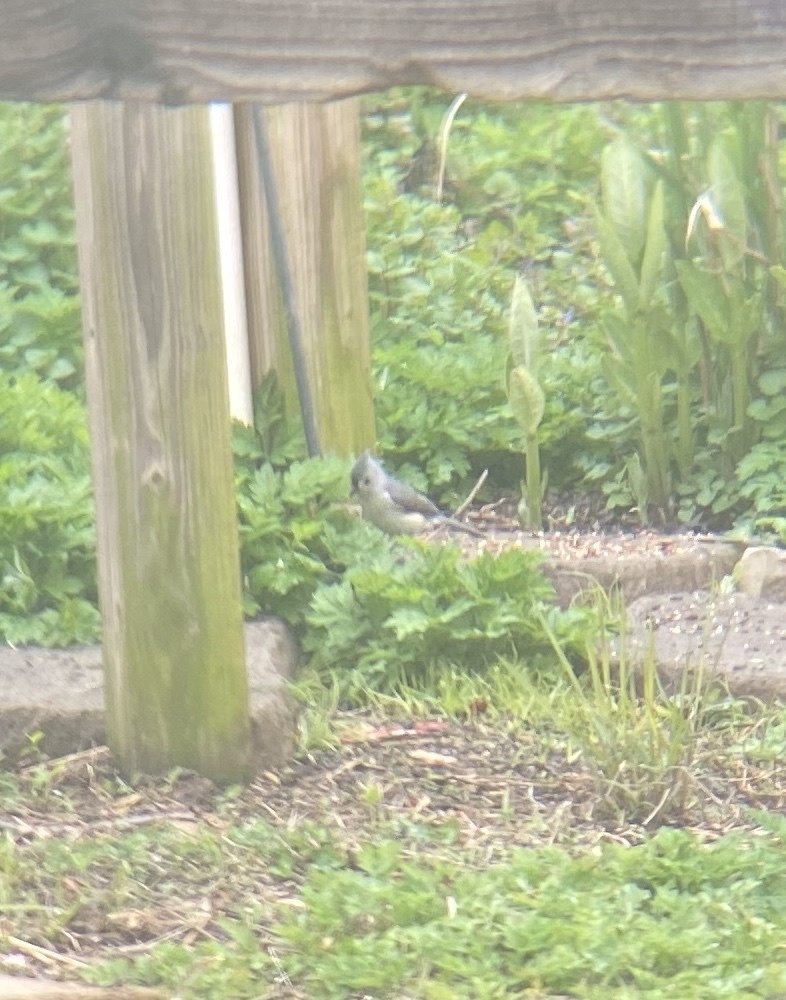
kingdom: Animalia
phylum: Chordata
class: Aves
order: Passeriformes
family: Paridae
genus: Baeolophus
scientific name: Baeolophus bicolor
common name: Tufted titmouse
